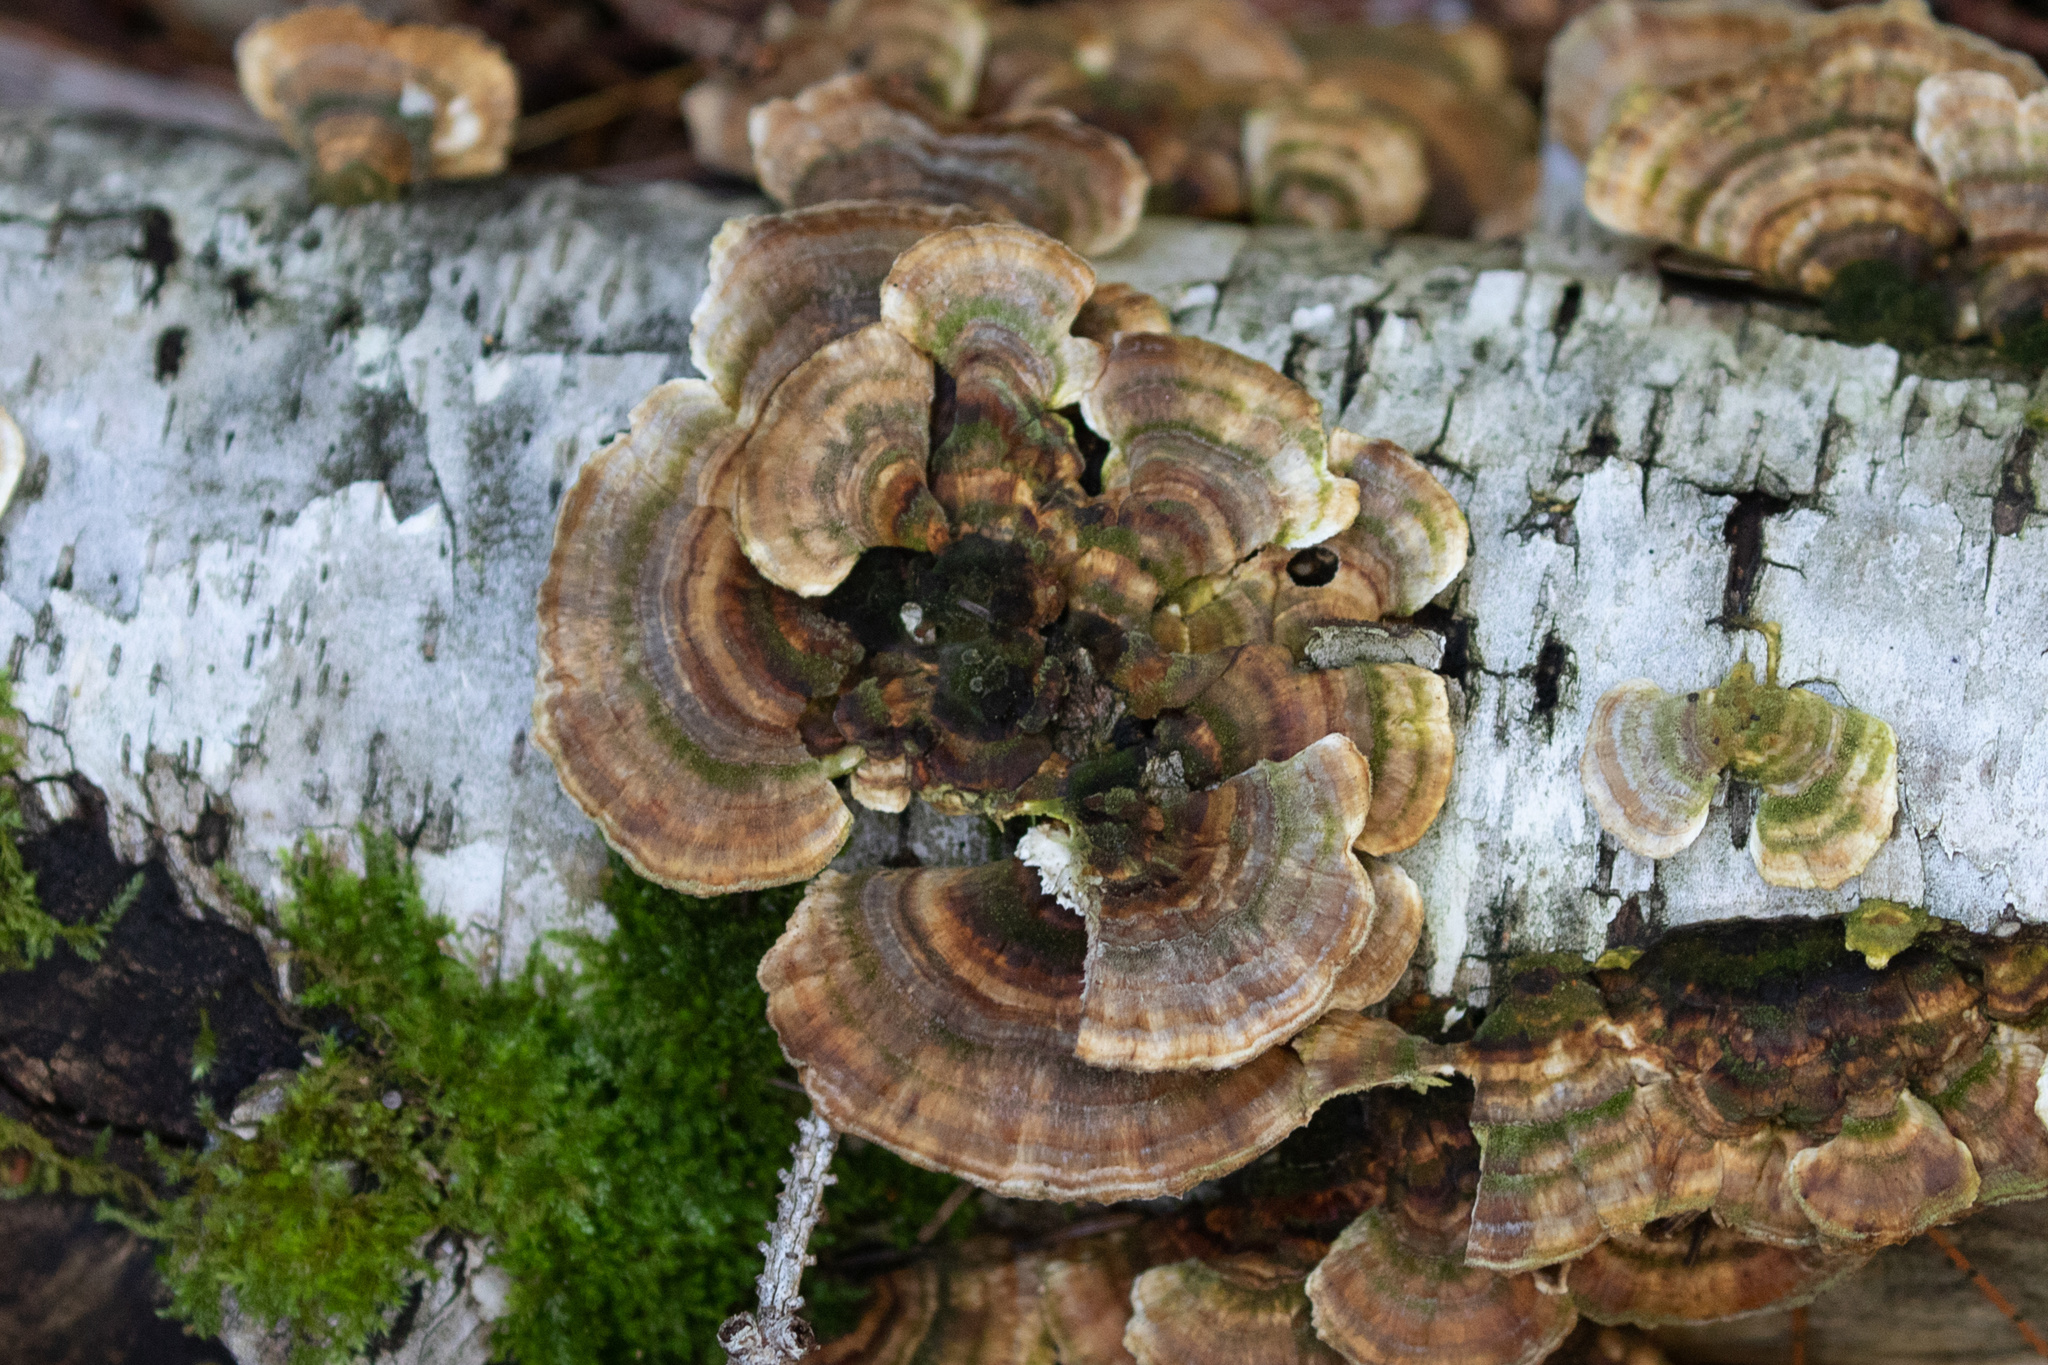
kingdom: Fungi
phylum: Basidiomycota
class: Agaricomycetes
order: Polyporales
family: Polyporaceae
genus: Trametes
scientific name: Trametes versicolor
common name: Turkeytail
